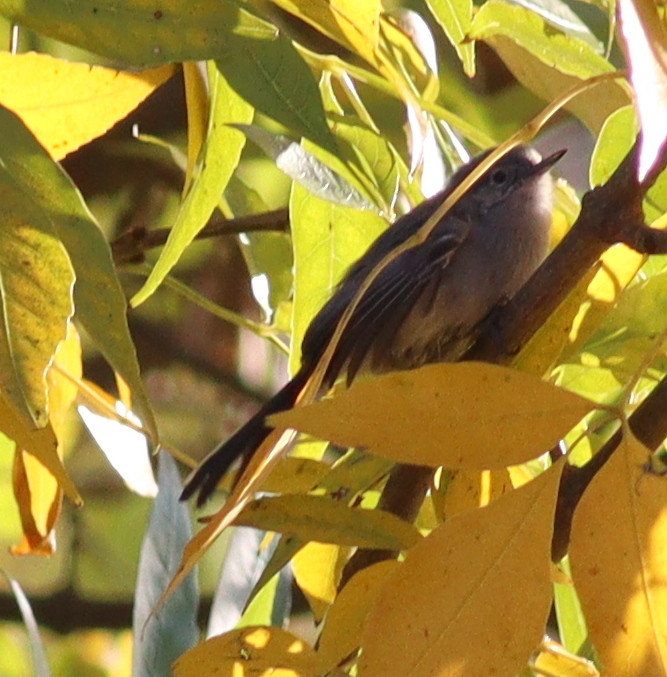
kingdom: Animalia
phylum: Chordata
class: Aves
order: Passeriformes
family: Polioptilidae
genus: Polioptila
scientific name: Polioptila dumicola
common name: Masked gnatcatcher
